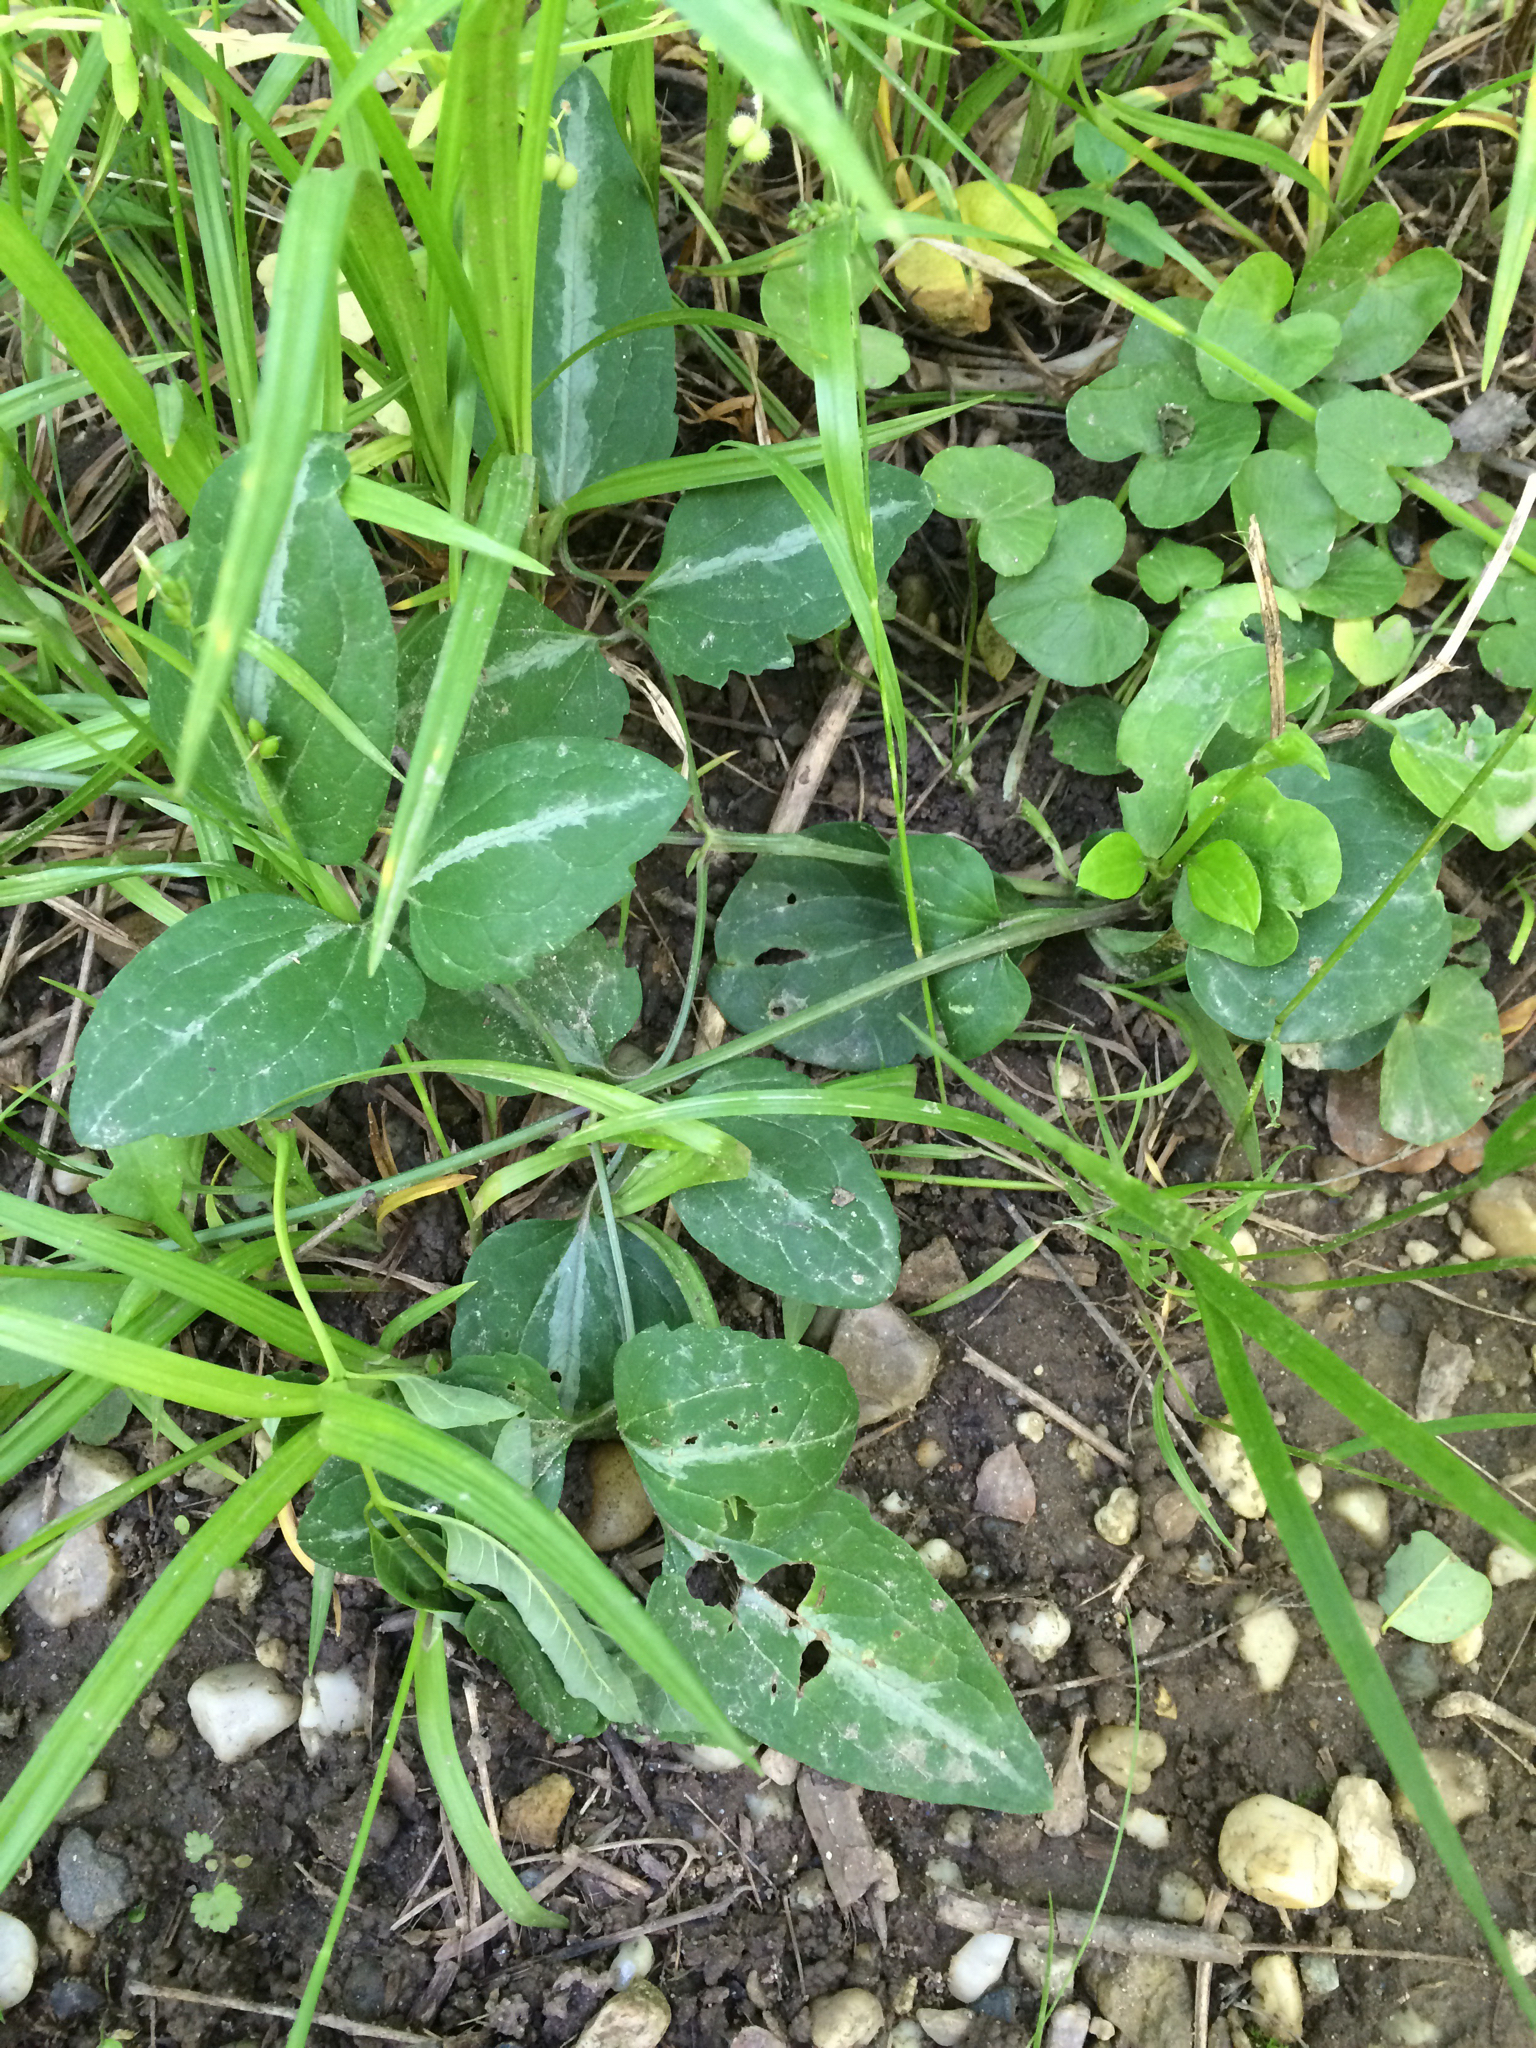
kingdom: Plantae
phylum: Tracheophyta
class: Magnoliopsida
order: Ranunculales
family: Ranunculaceae
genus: Clematis
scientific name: Clematis terniflora
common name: Sweet autumn clematis
